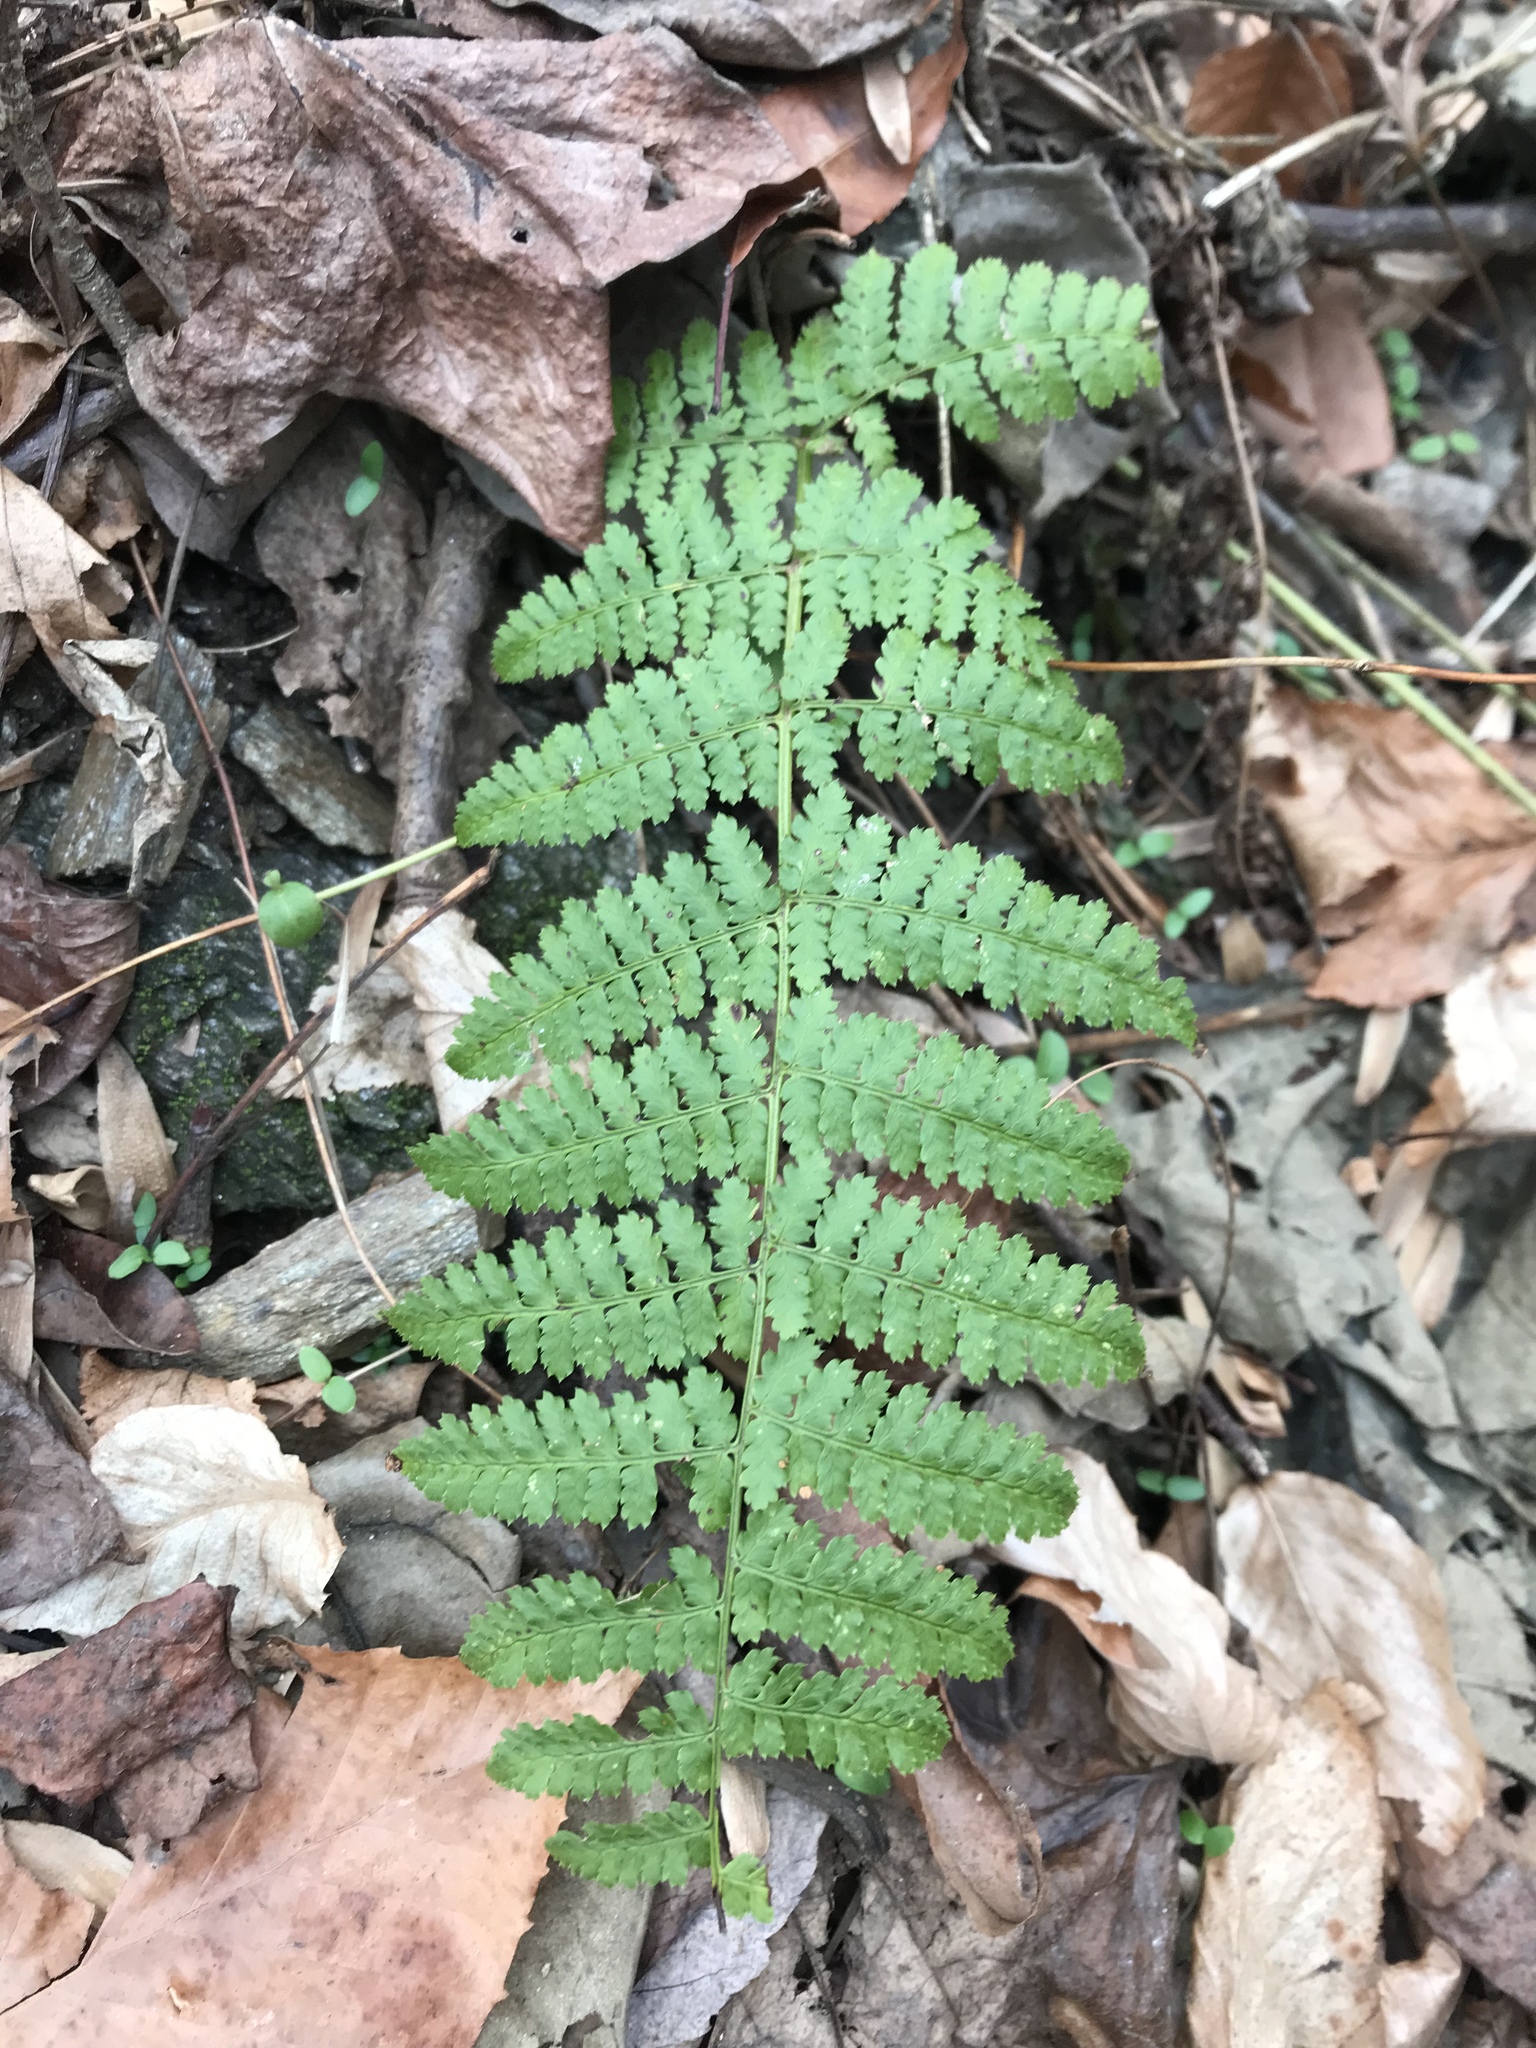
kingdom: Plantae
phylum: Tracheophyta
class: Polypodiopsida
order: Polypodiales
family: Dryopteridaceae
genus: Dryopteris
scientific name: Dryopteris intermedia
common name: Evergreen wood fern
